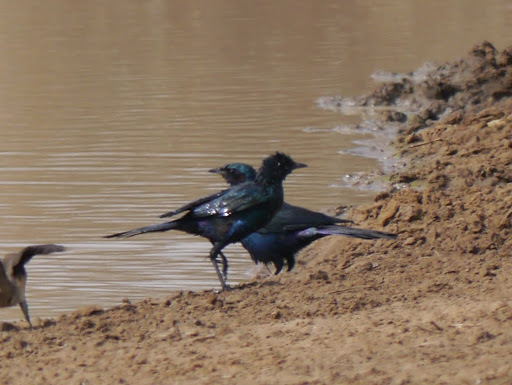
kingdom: Animalia
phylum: Chordata
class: Aves
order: Passeriformes
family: Sturnidae
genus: Lamprotornis
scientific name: Lamprotornis australis
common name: Burchell's starling
